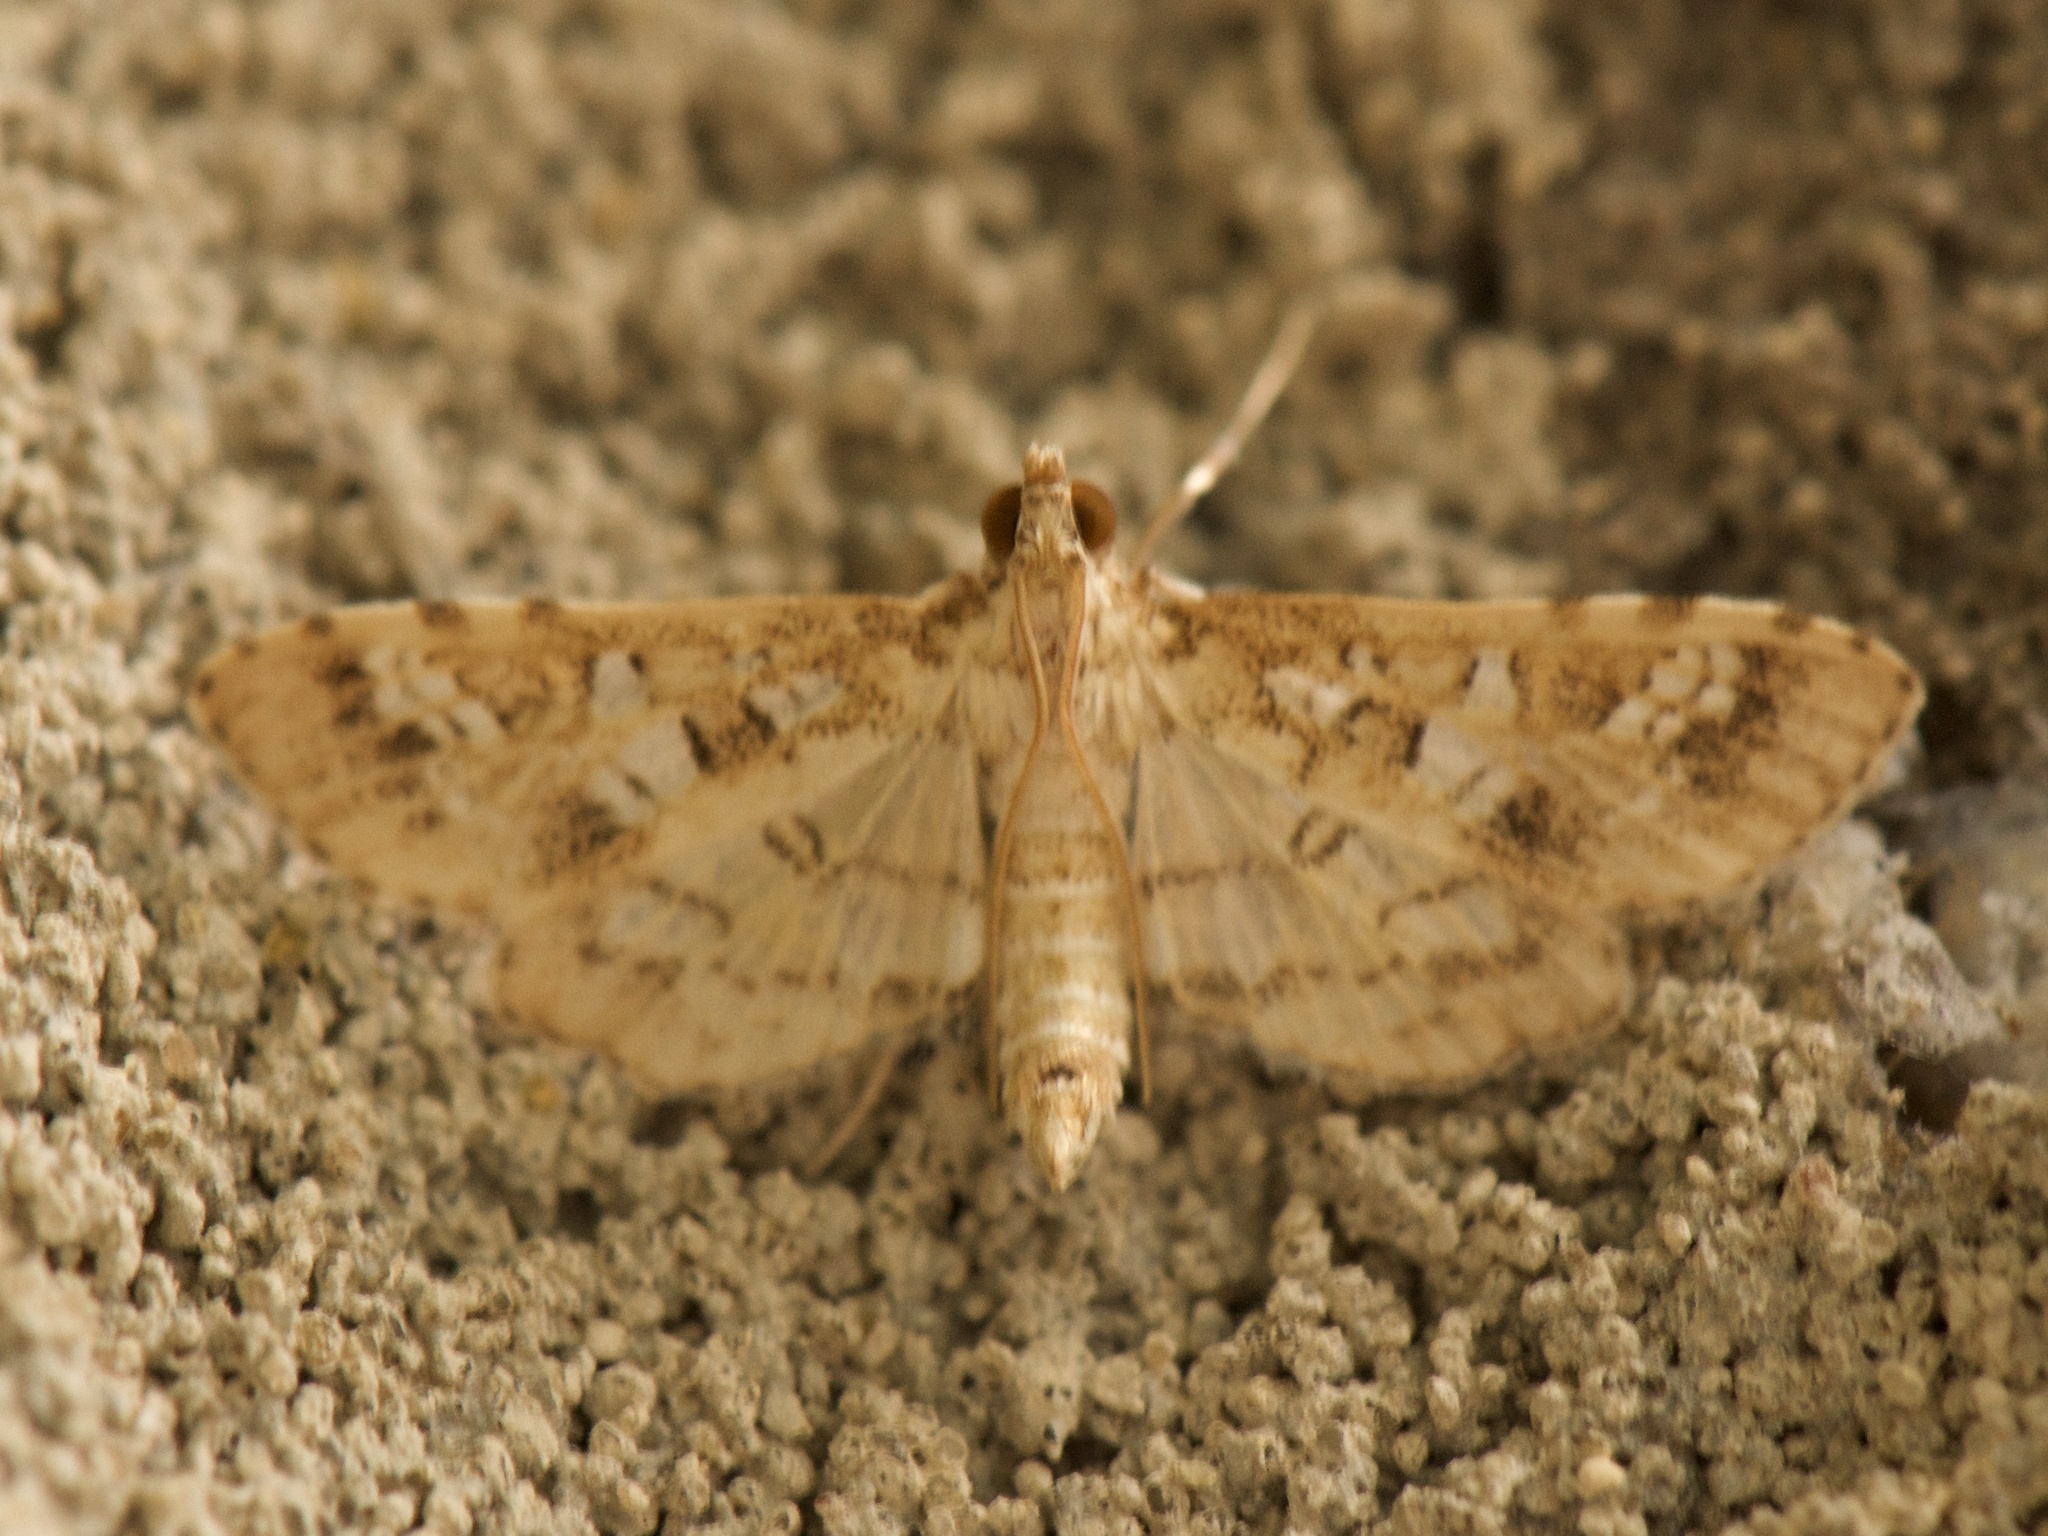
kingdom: Animalia
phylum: Arthropoda
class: Insecta
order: Lepidoptera
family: Crambidae
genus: Samea
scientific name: Samea multiplicalis
